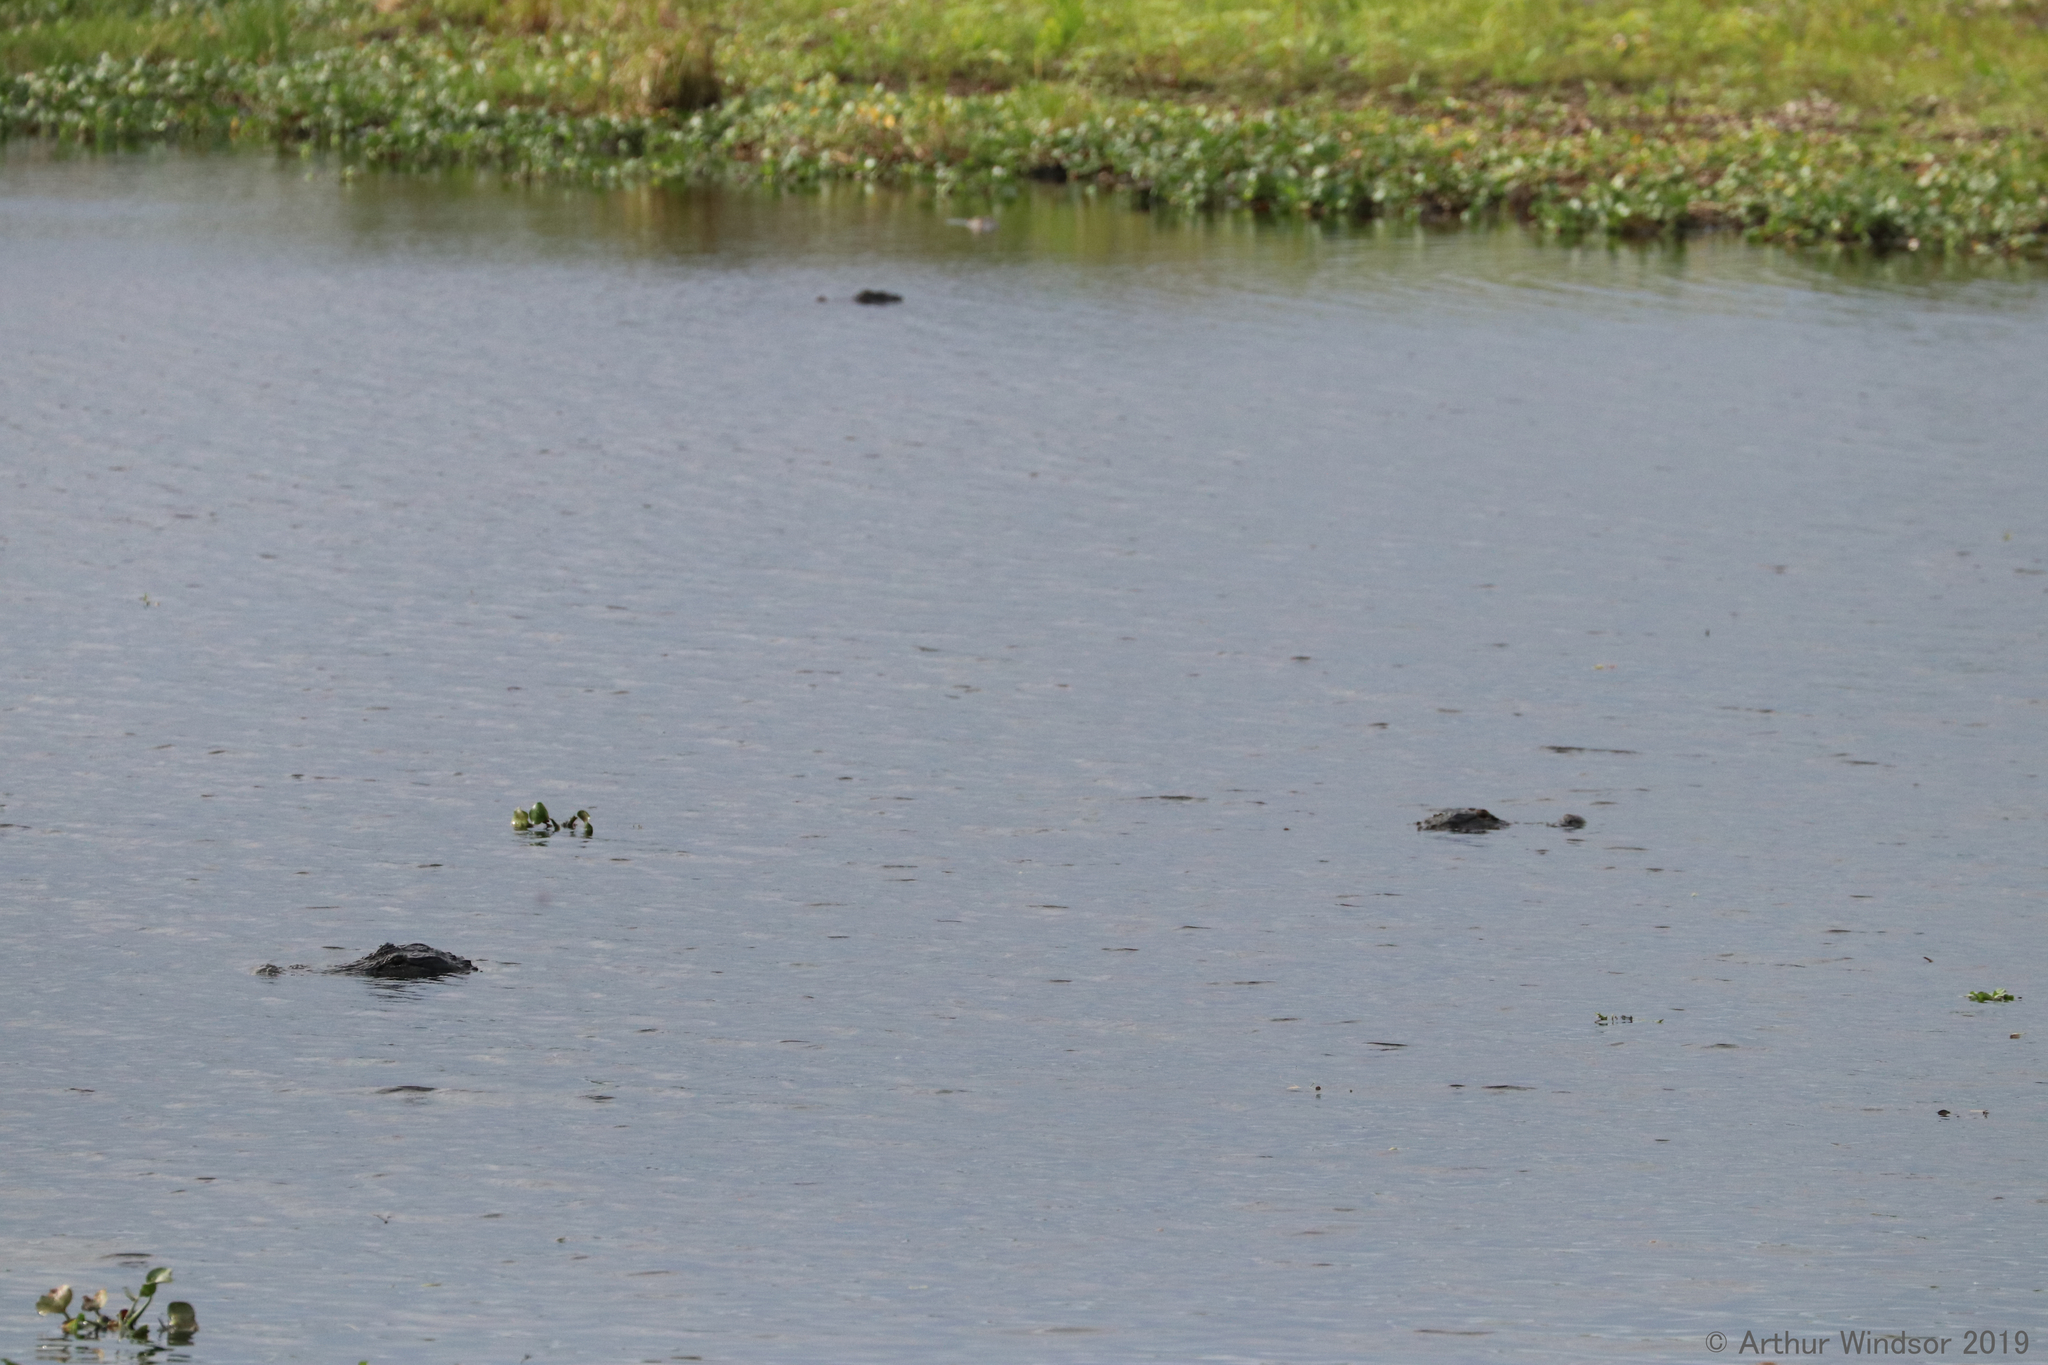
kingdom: Animalia
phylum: Chordata
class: Crocodylia
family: Alligatoridae
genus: Alligator
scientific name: Alligator mississippiensis
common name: American alligator
